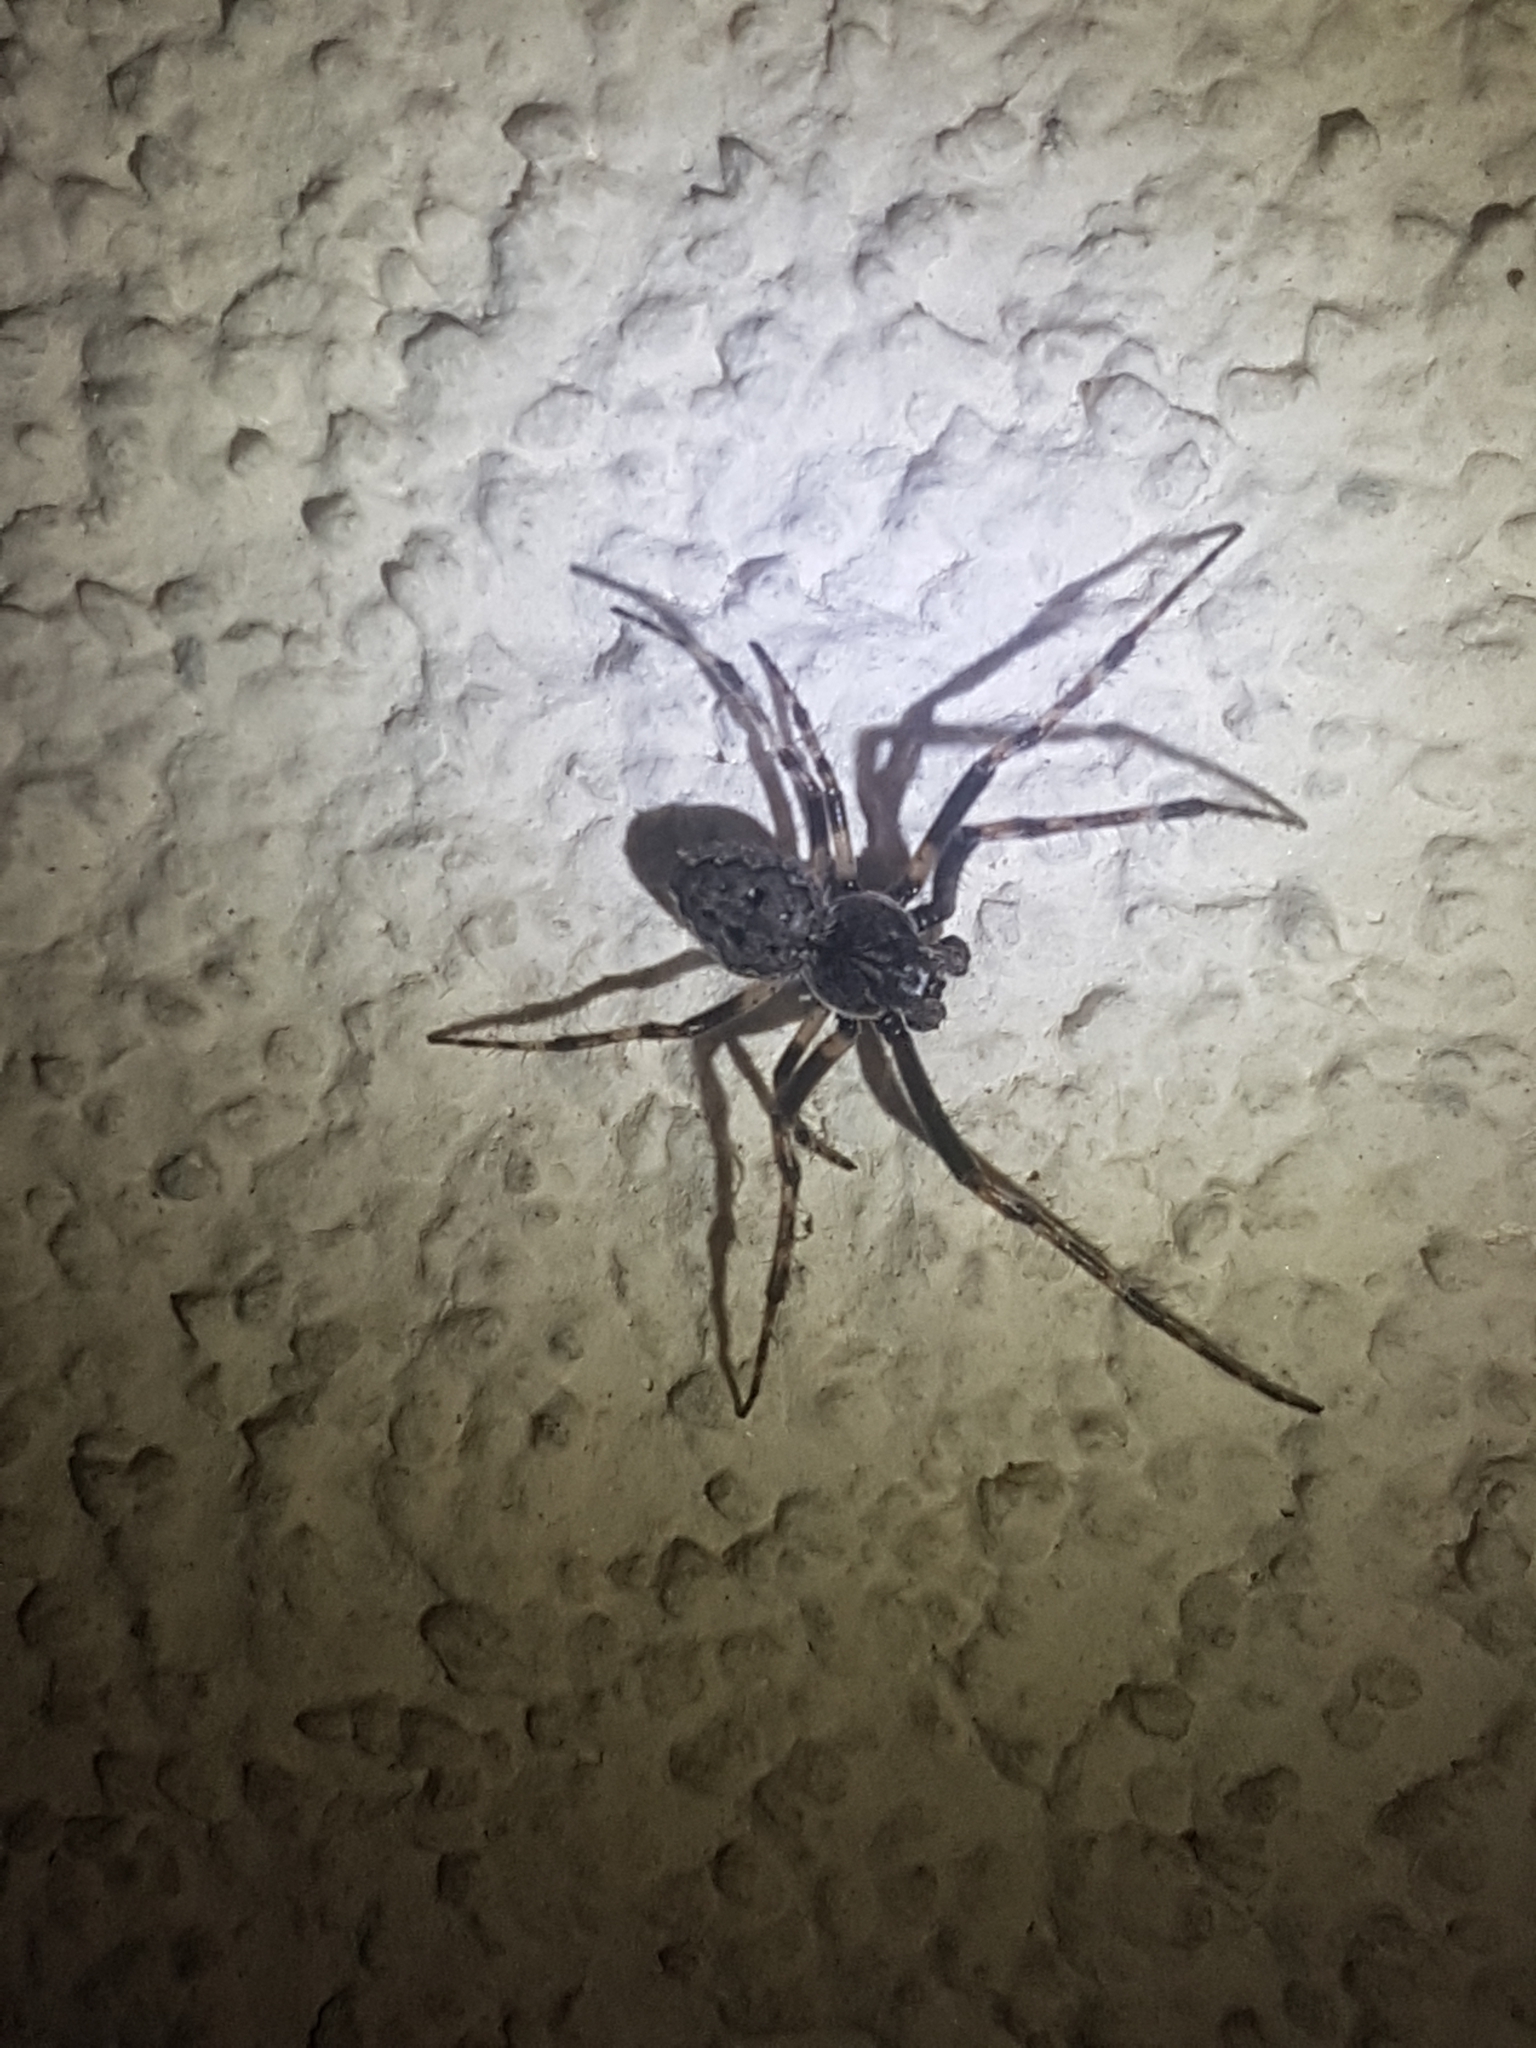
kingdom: Animalia
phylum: Arthropoda
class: Arachnida
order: Araneae
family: Araneidae
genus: Nuctenea
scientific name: Nuctenea umbratica
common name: Toad spider
